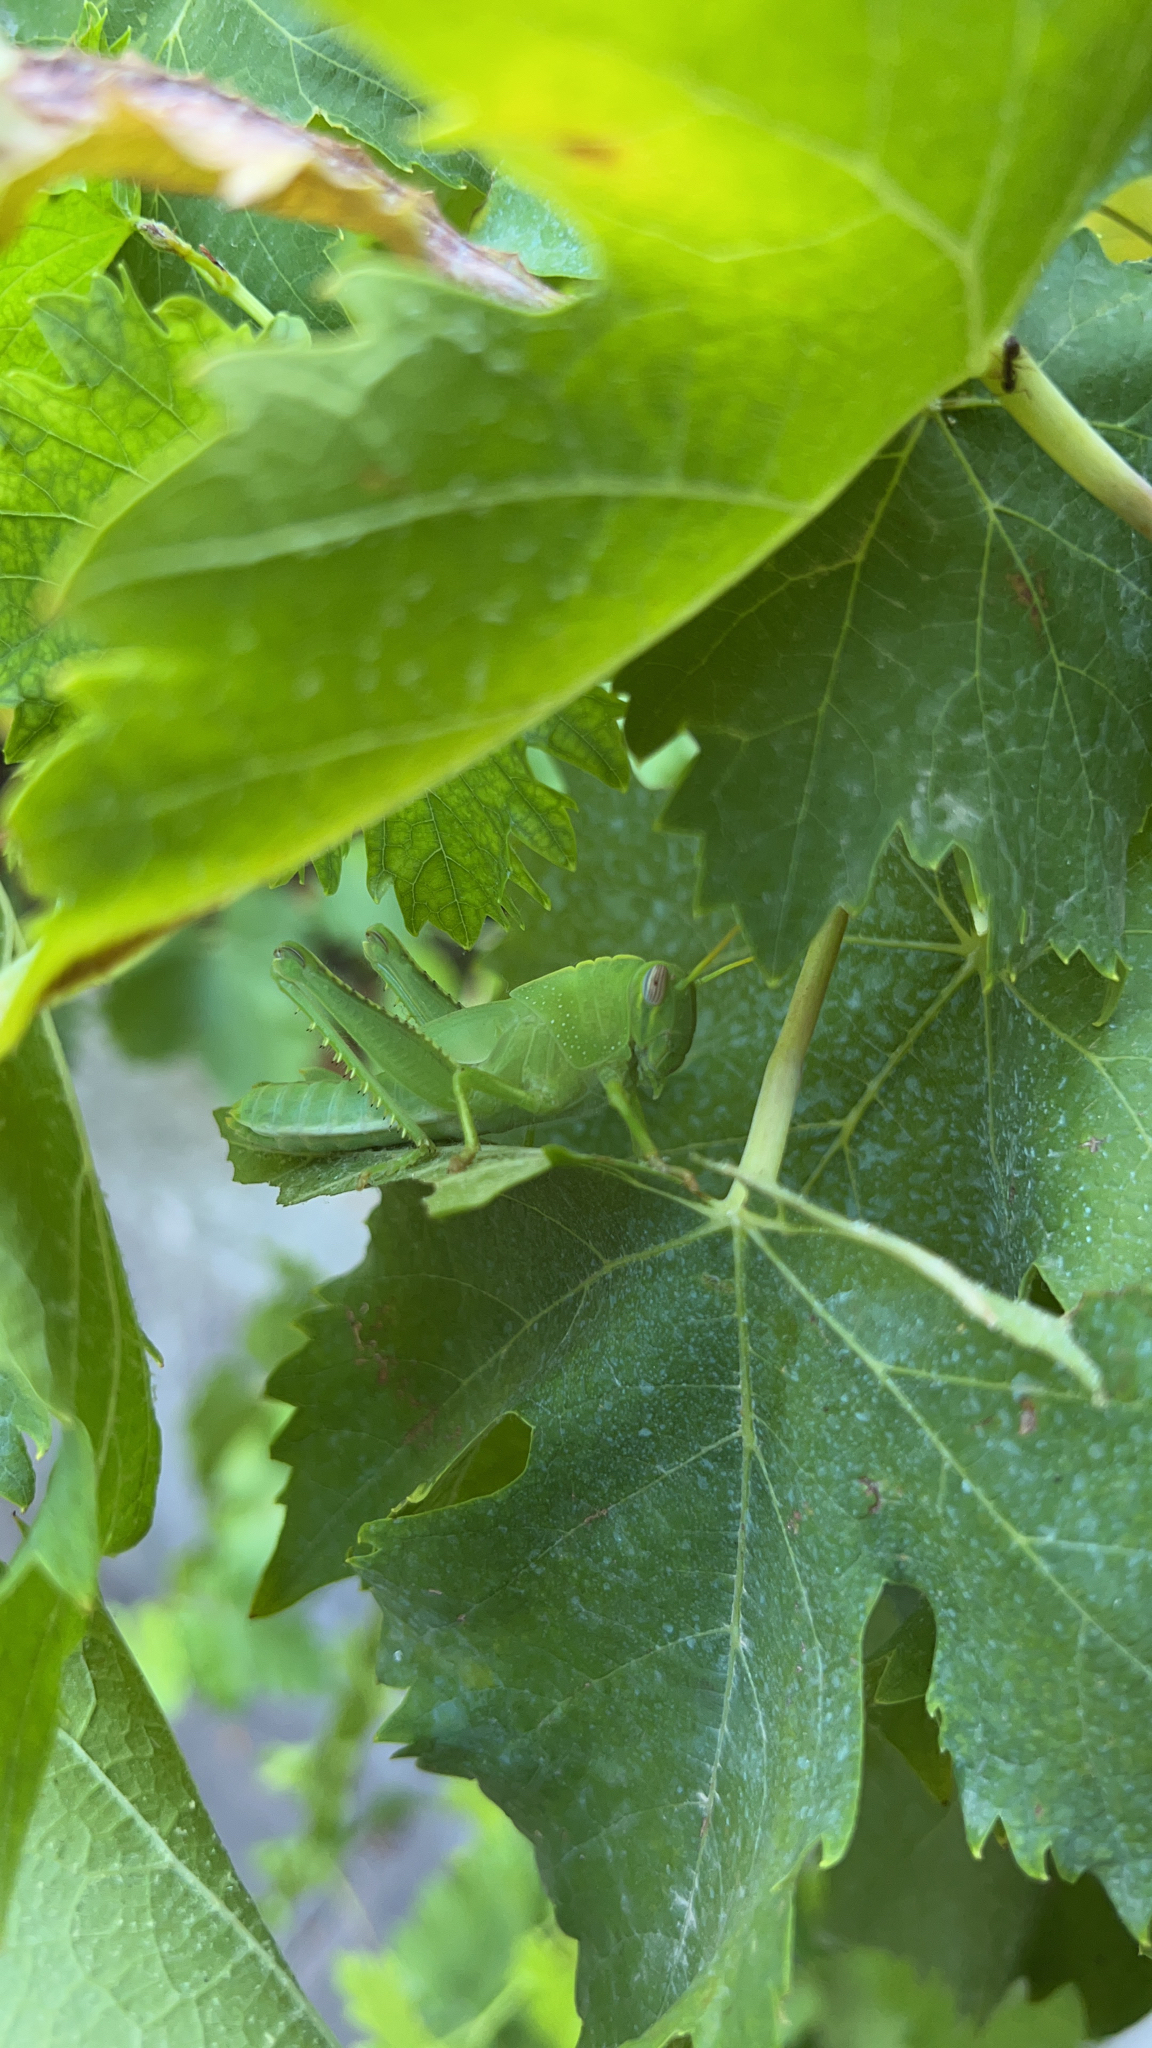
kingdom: Animalia
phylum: Arthropoda
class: Insecta
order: Orthoptera
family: Acrididae
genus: Anacridium
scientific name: Anacridium aegyptium
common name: Egyptian grasshopper
